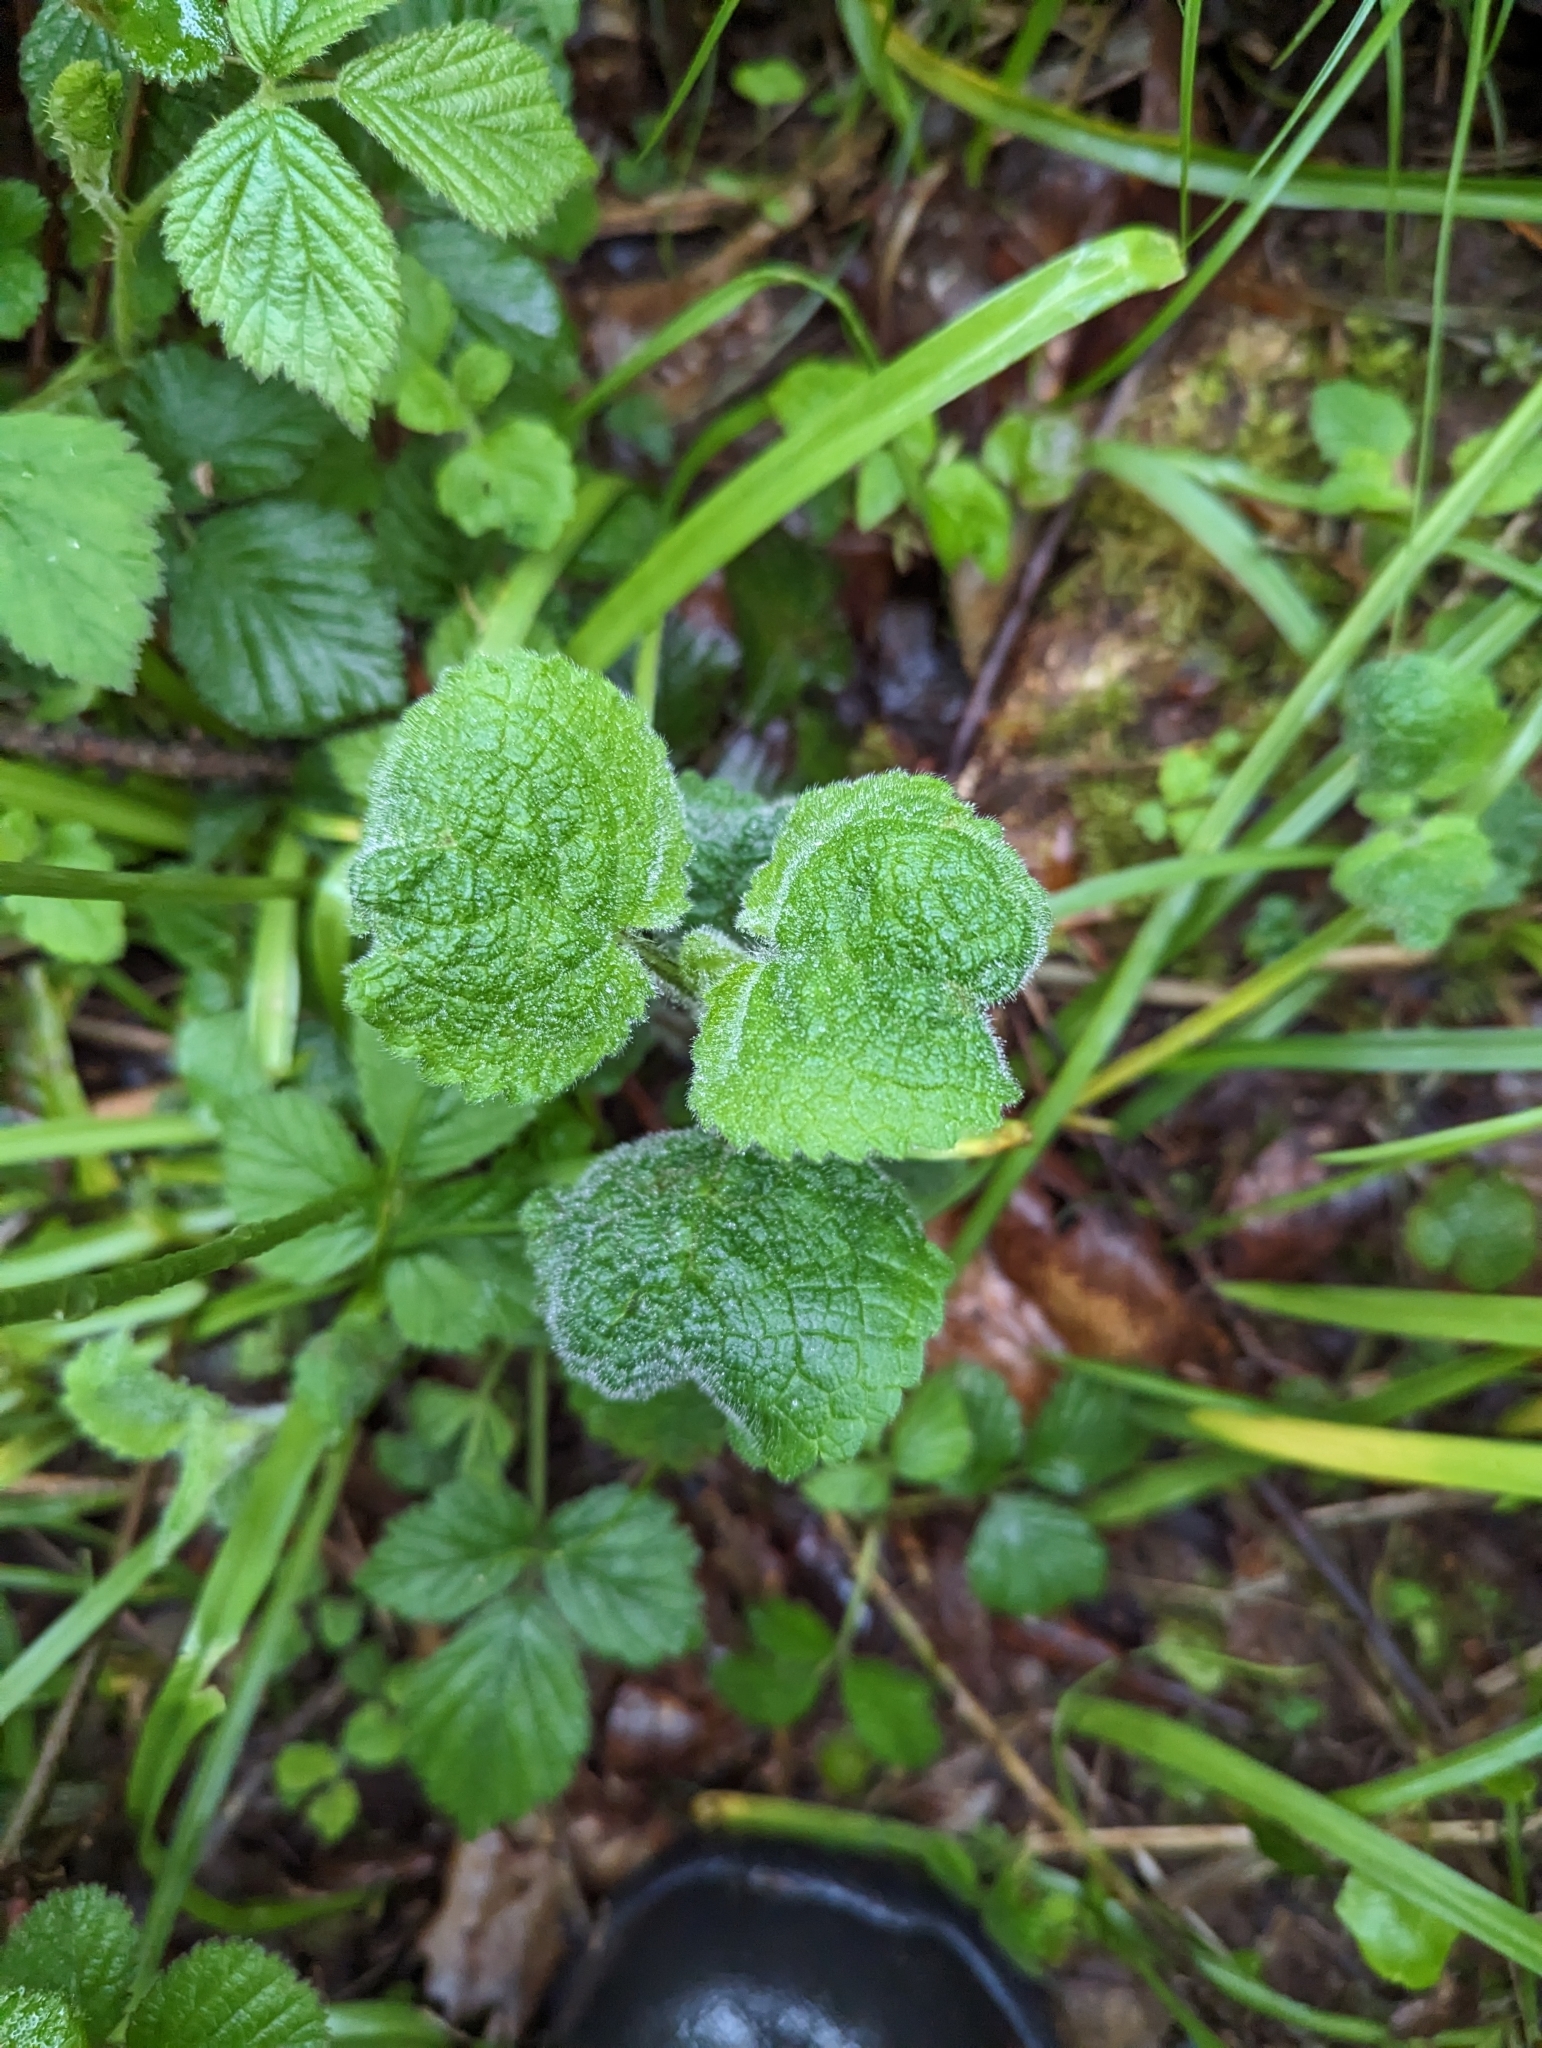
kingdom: Plantae
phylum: Tracheophyta
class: Magnoliopsida
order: Lamiales
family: Lamiaceae
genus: Stachys
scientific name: Stachys sylvatica
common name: Hedge woundwort
